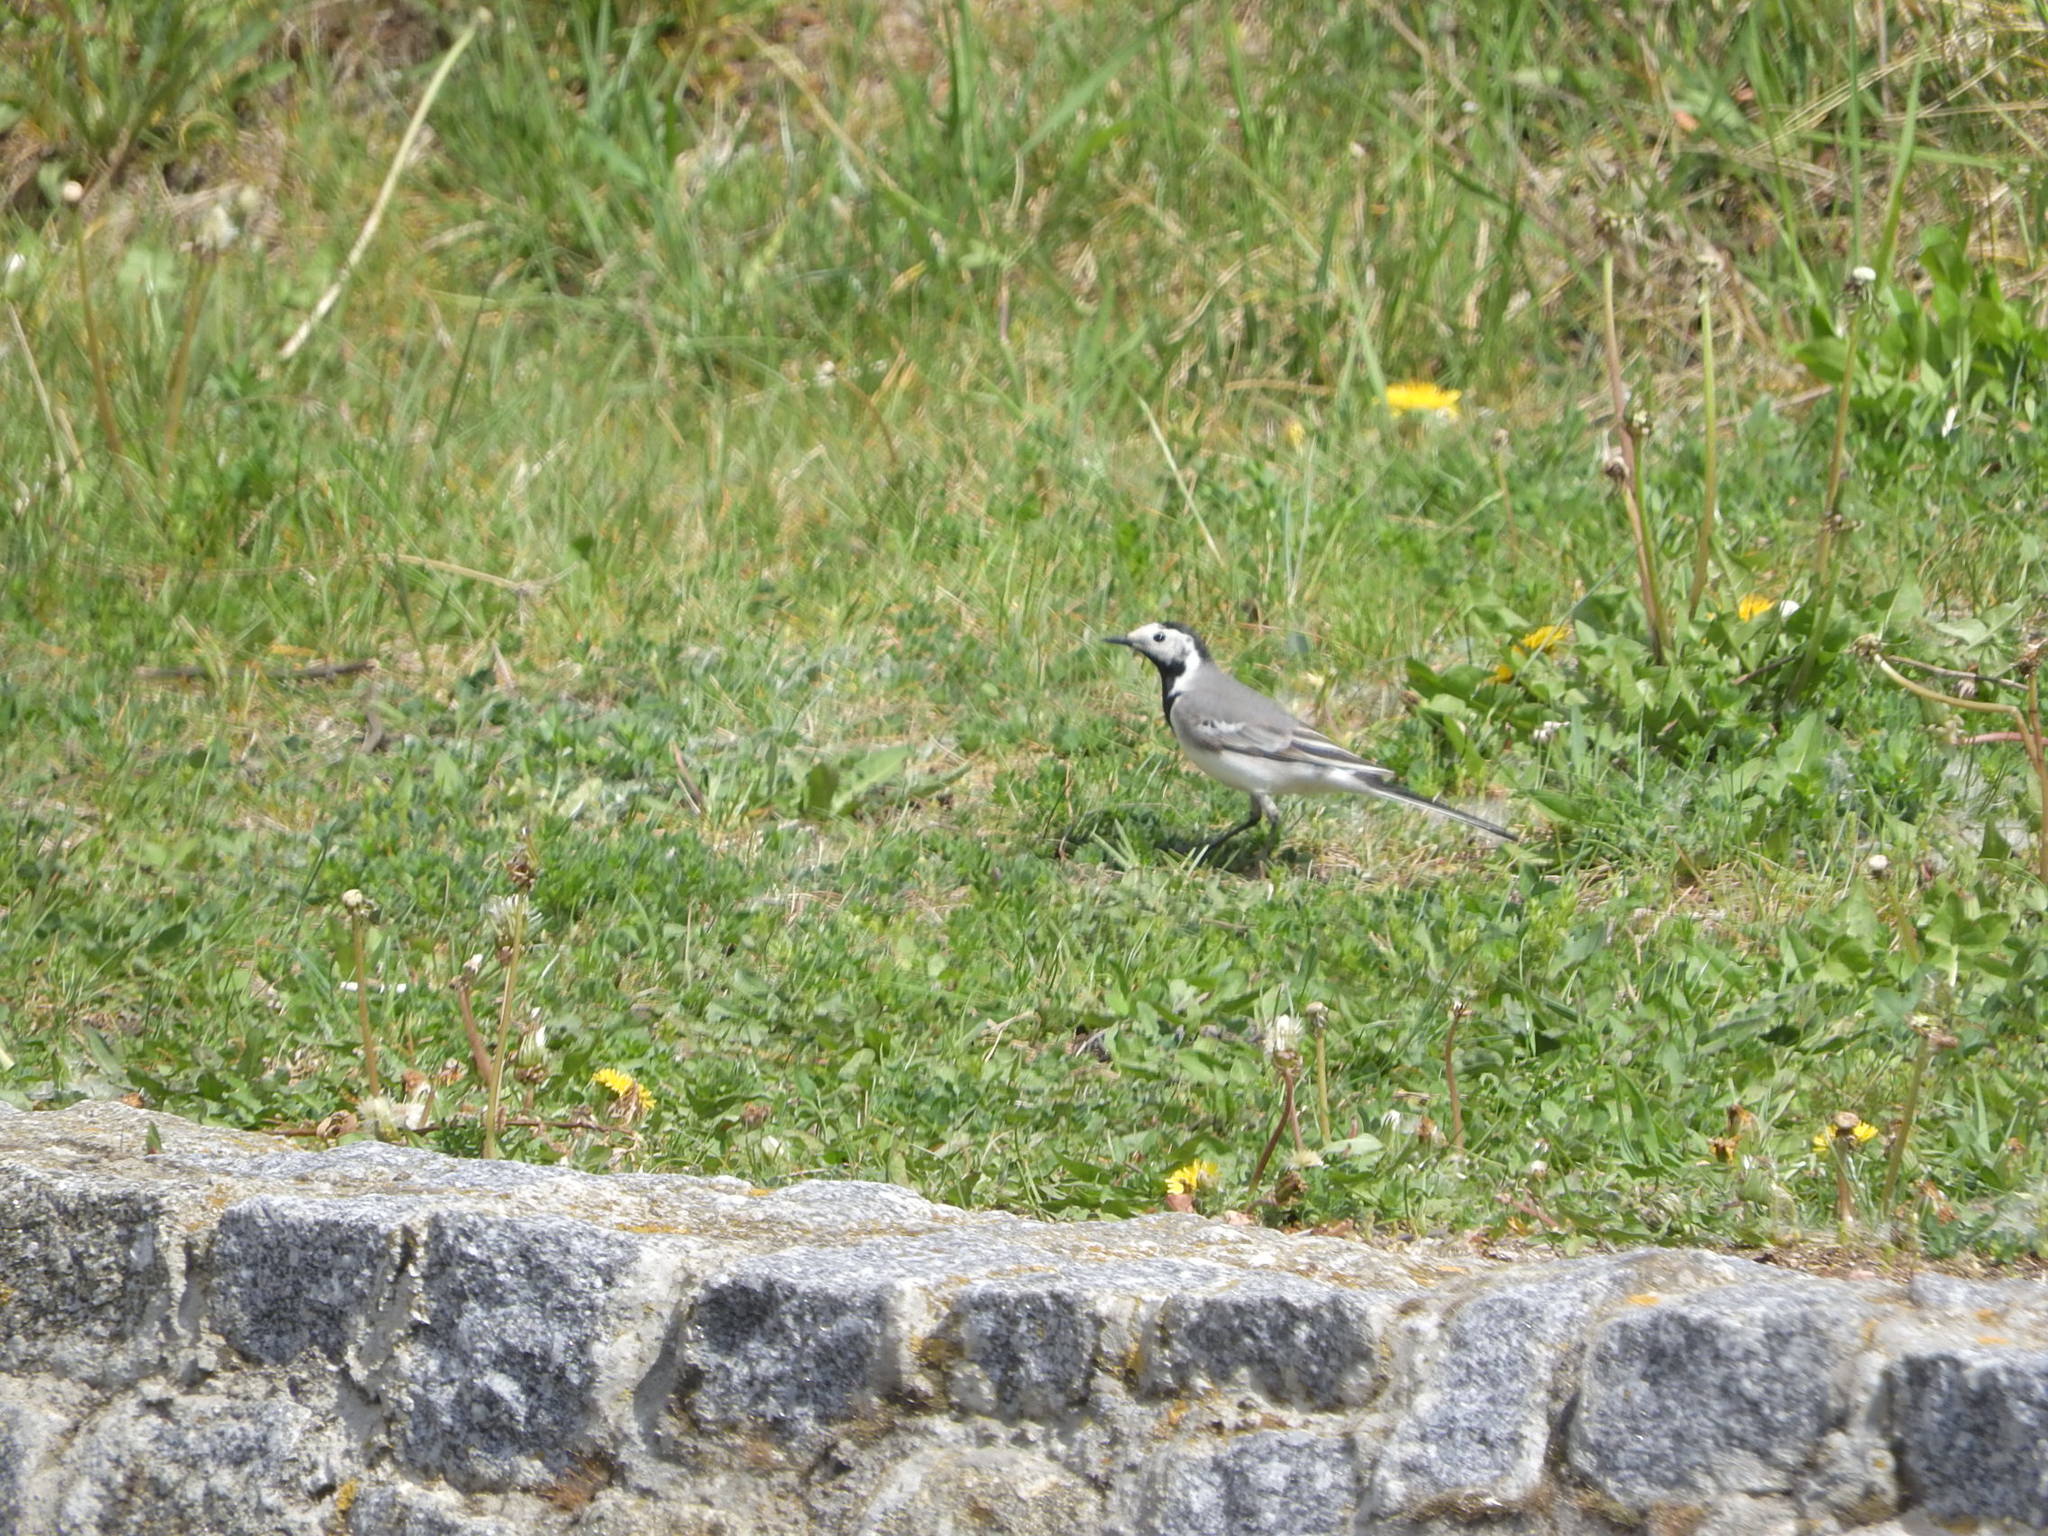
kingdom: Animalia
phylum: Chordata
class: Aves
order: Passeriformes
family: Motacillidae
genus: Motacilla
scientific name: Motacilla alba
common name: White wagtail
